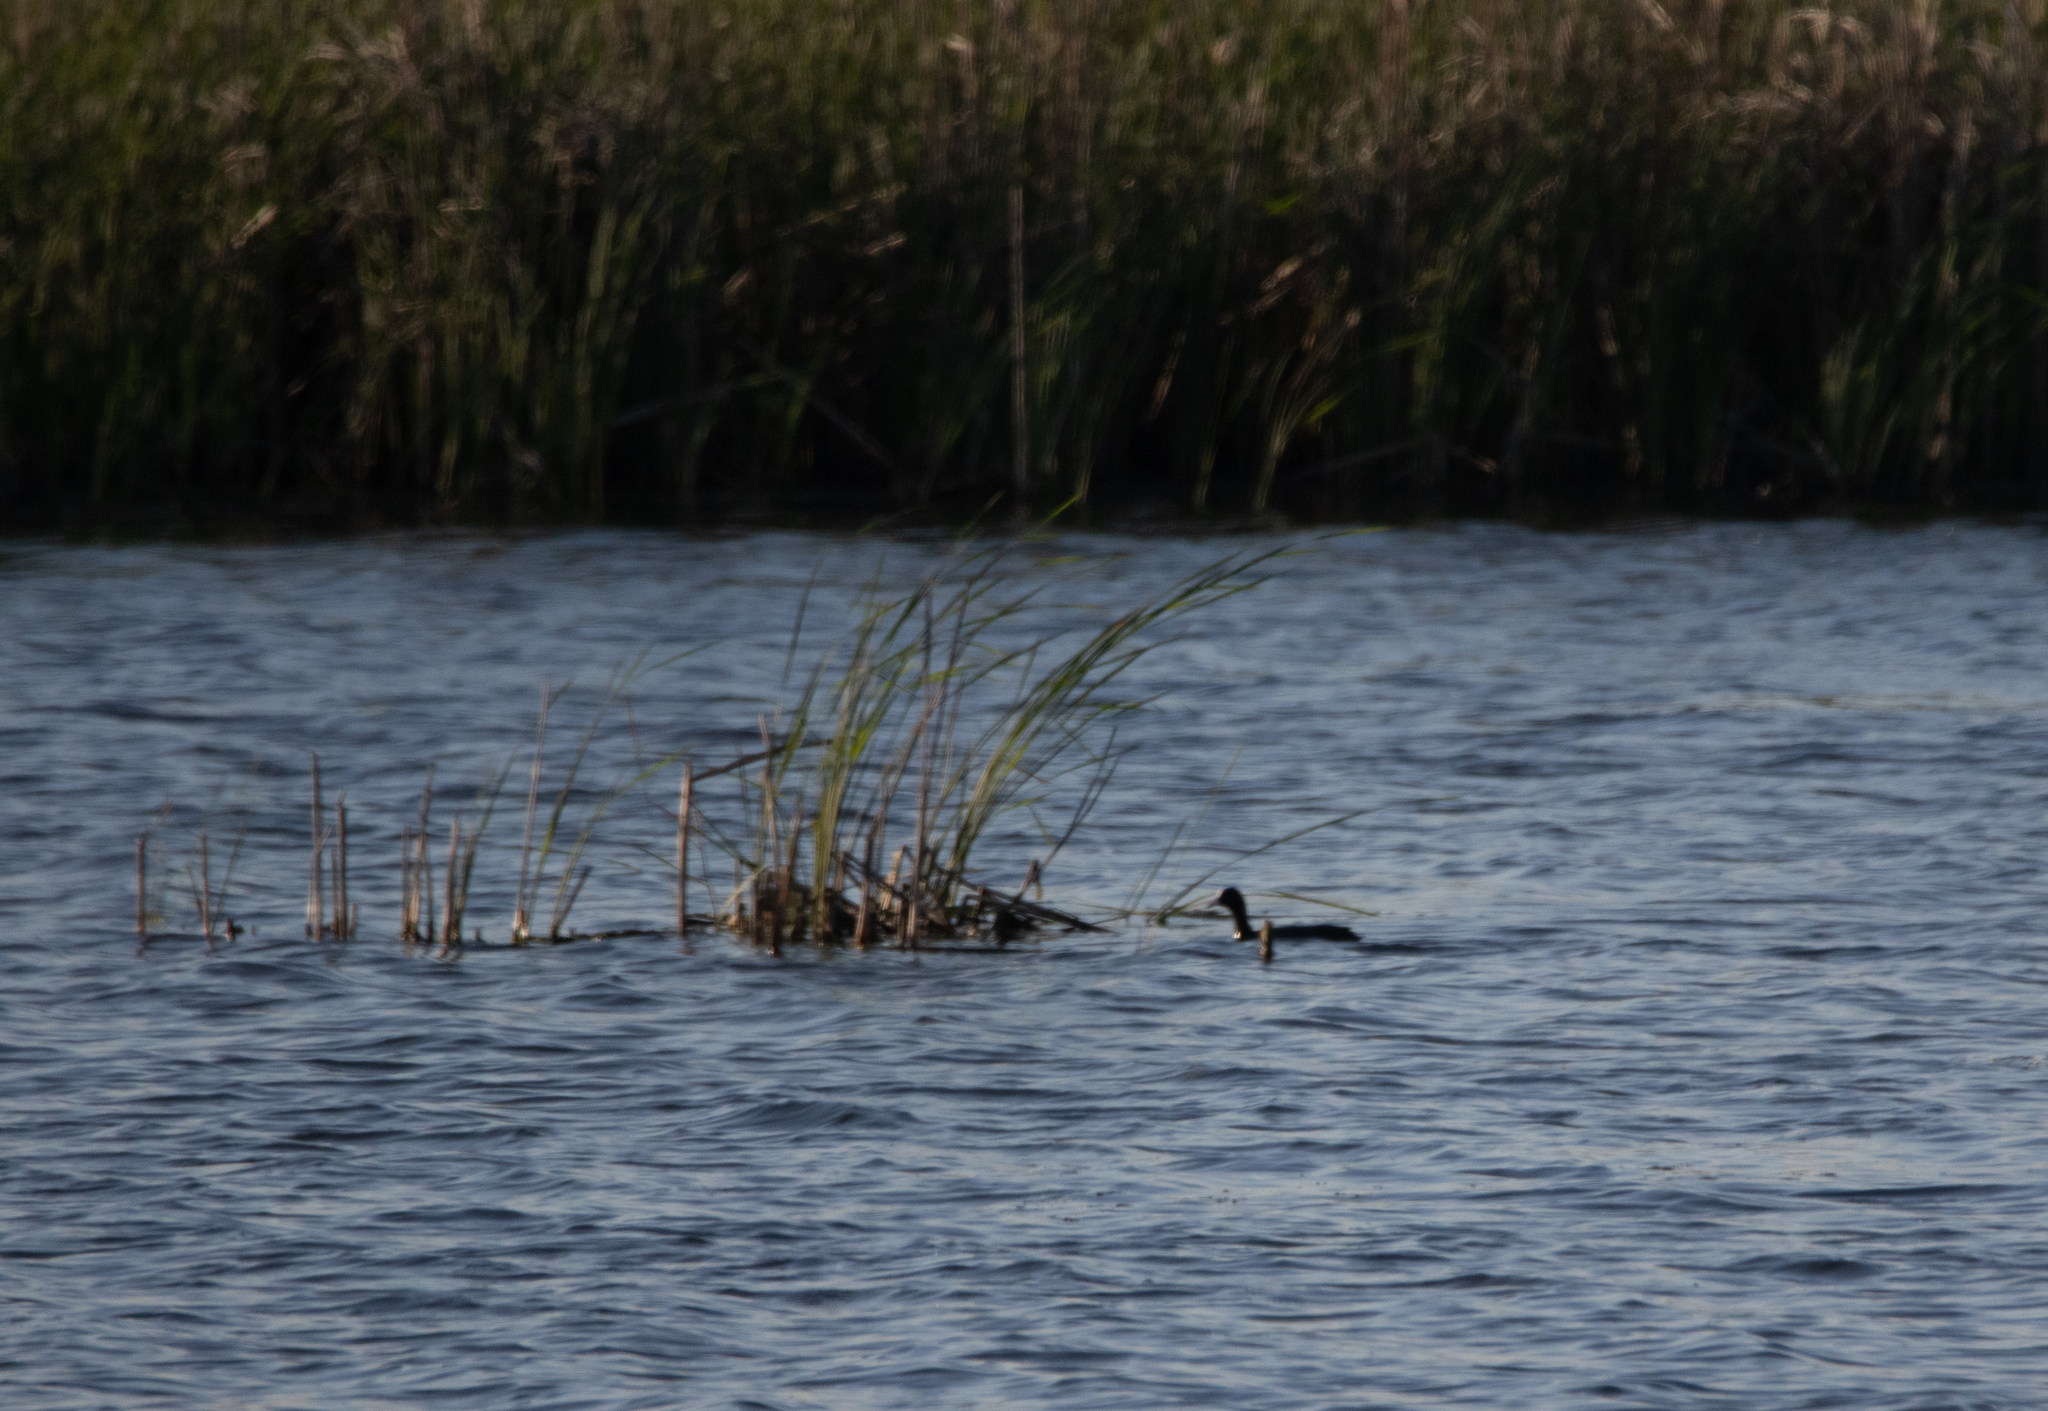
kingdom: Animalia
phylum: Chordata
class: Aves
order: Gruiformes
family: Rallidae
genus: Fulica
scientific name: Fulica atra
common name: Eurasian coot
